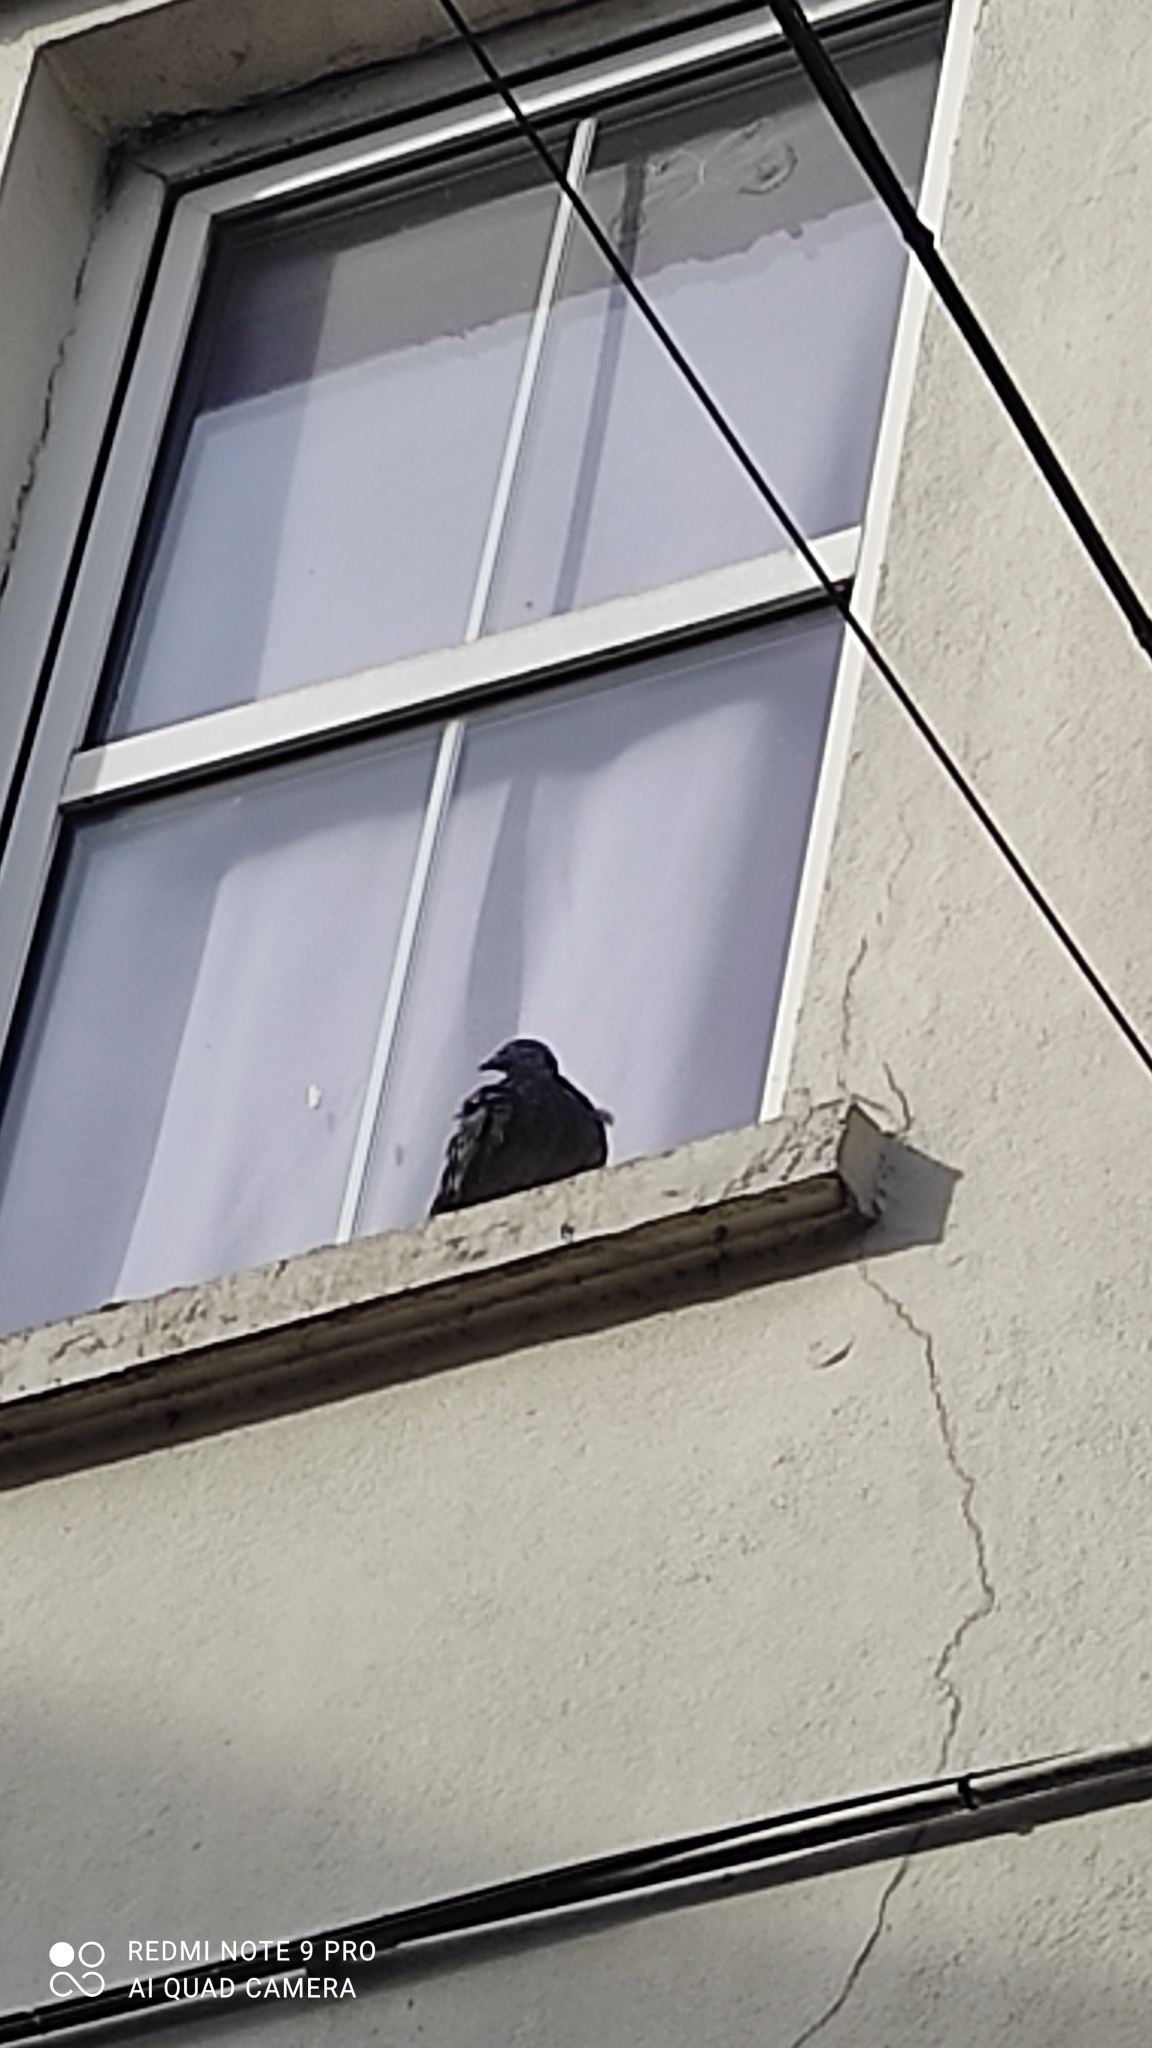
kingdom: Animalia
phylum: Chordata
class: Aves
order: Columbiformes
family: Columbidae
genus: Columba
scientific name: Columba livia
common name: Rock pigeon
